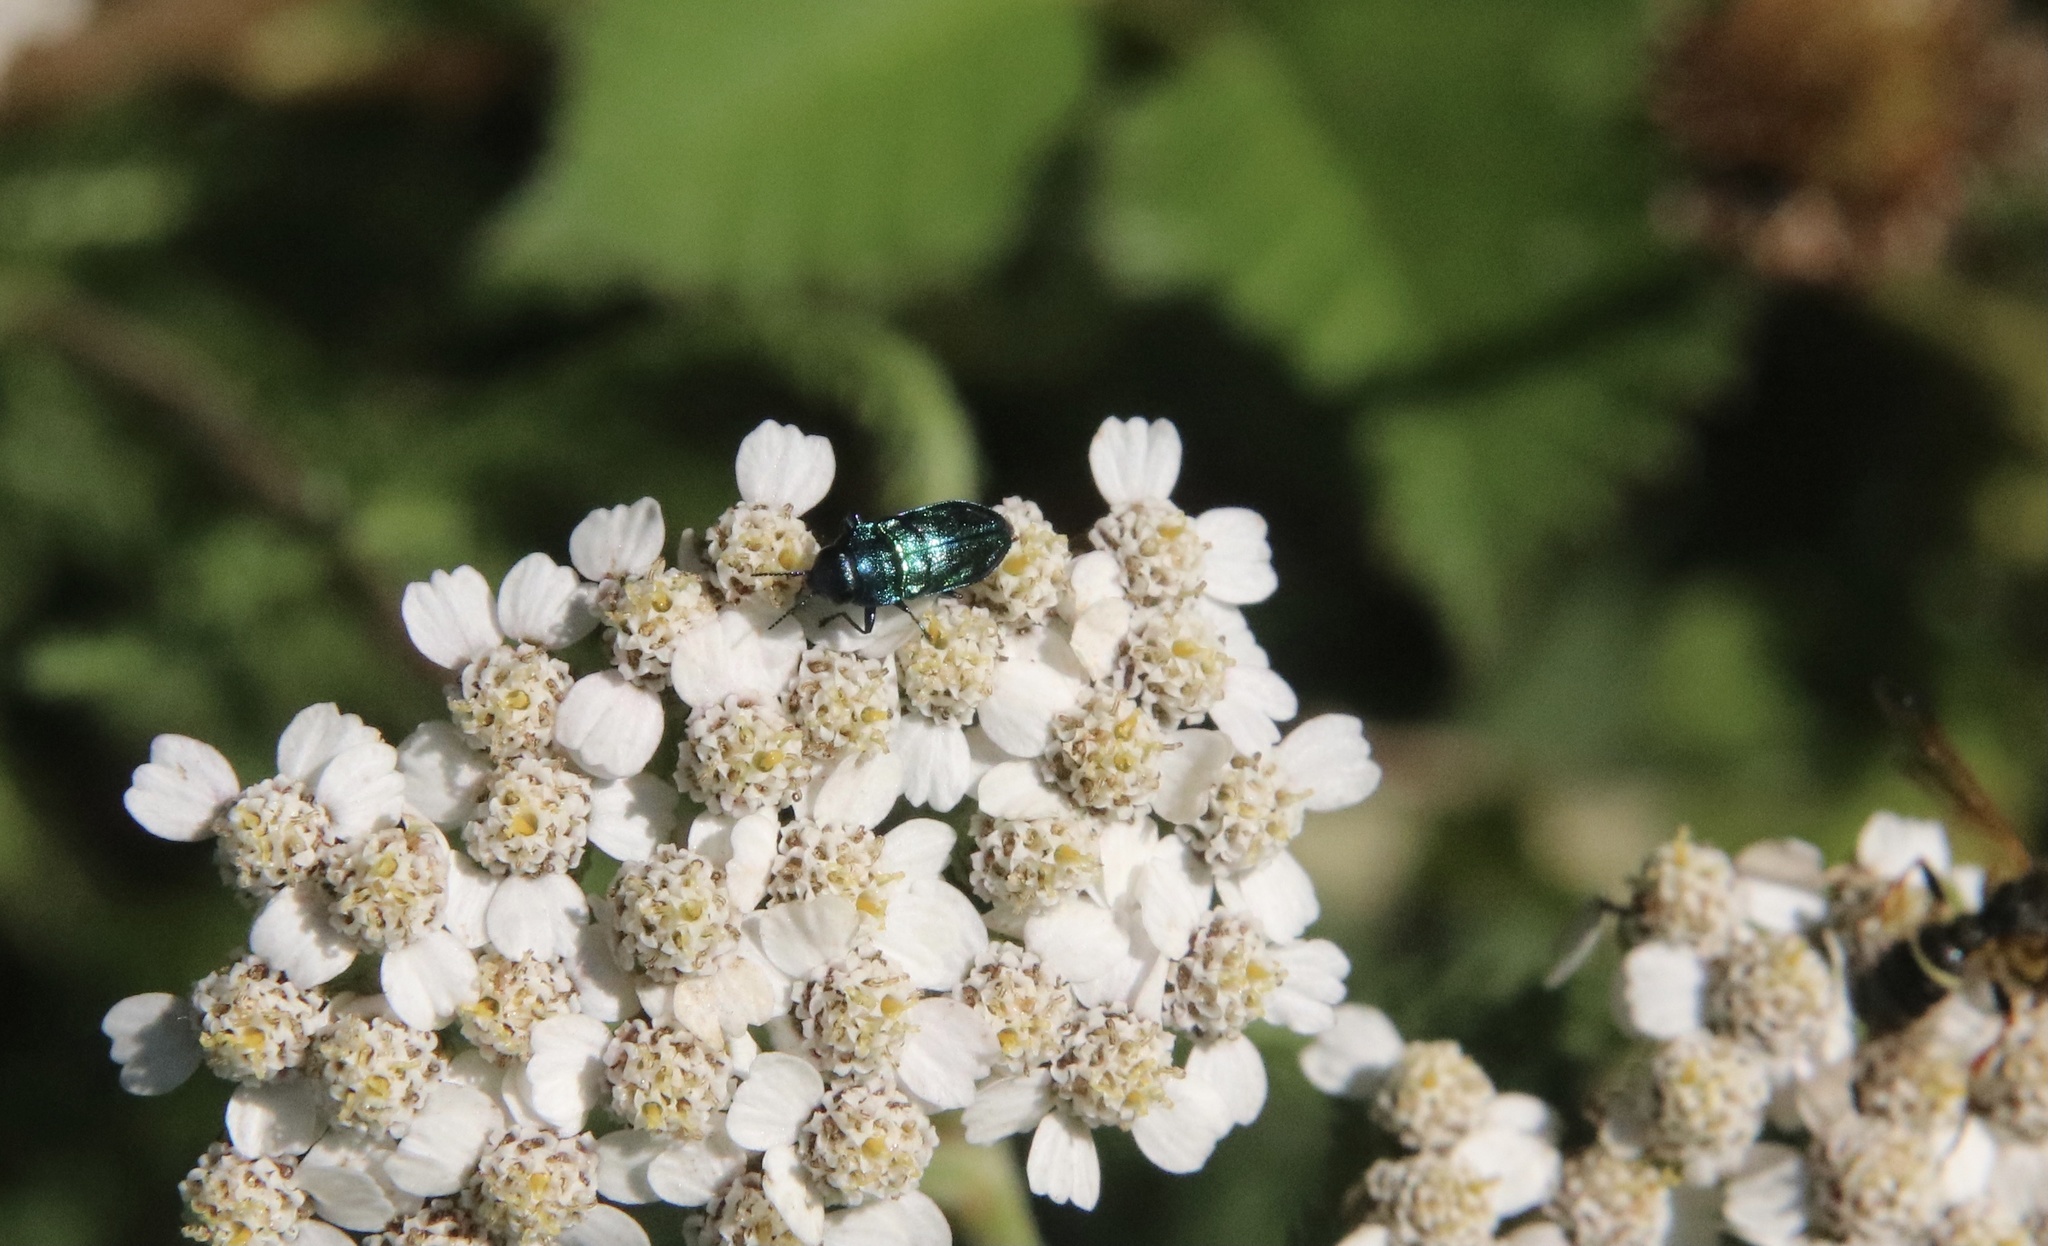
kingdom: Animalia
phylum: Arthropoda
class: Insecta
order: Coleoptera
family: Buprestidae
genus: Bilyaxia
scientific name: Bilyaxia concinna
